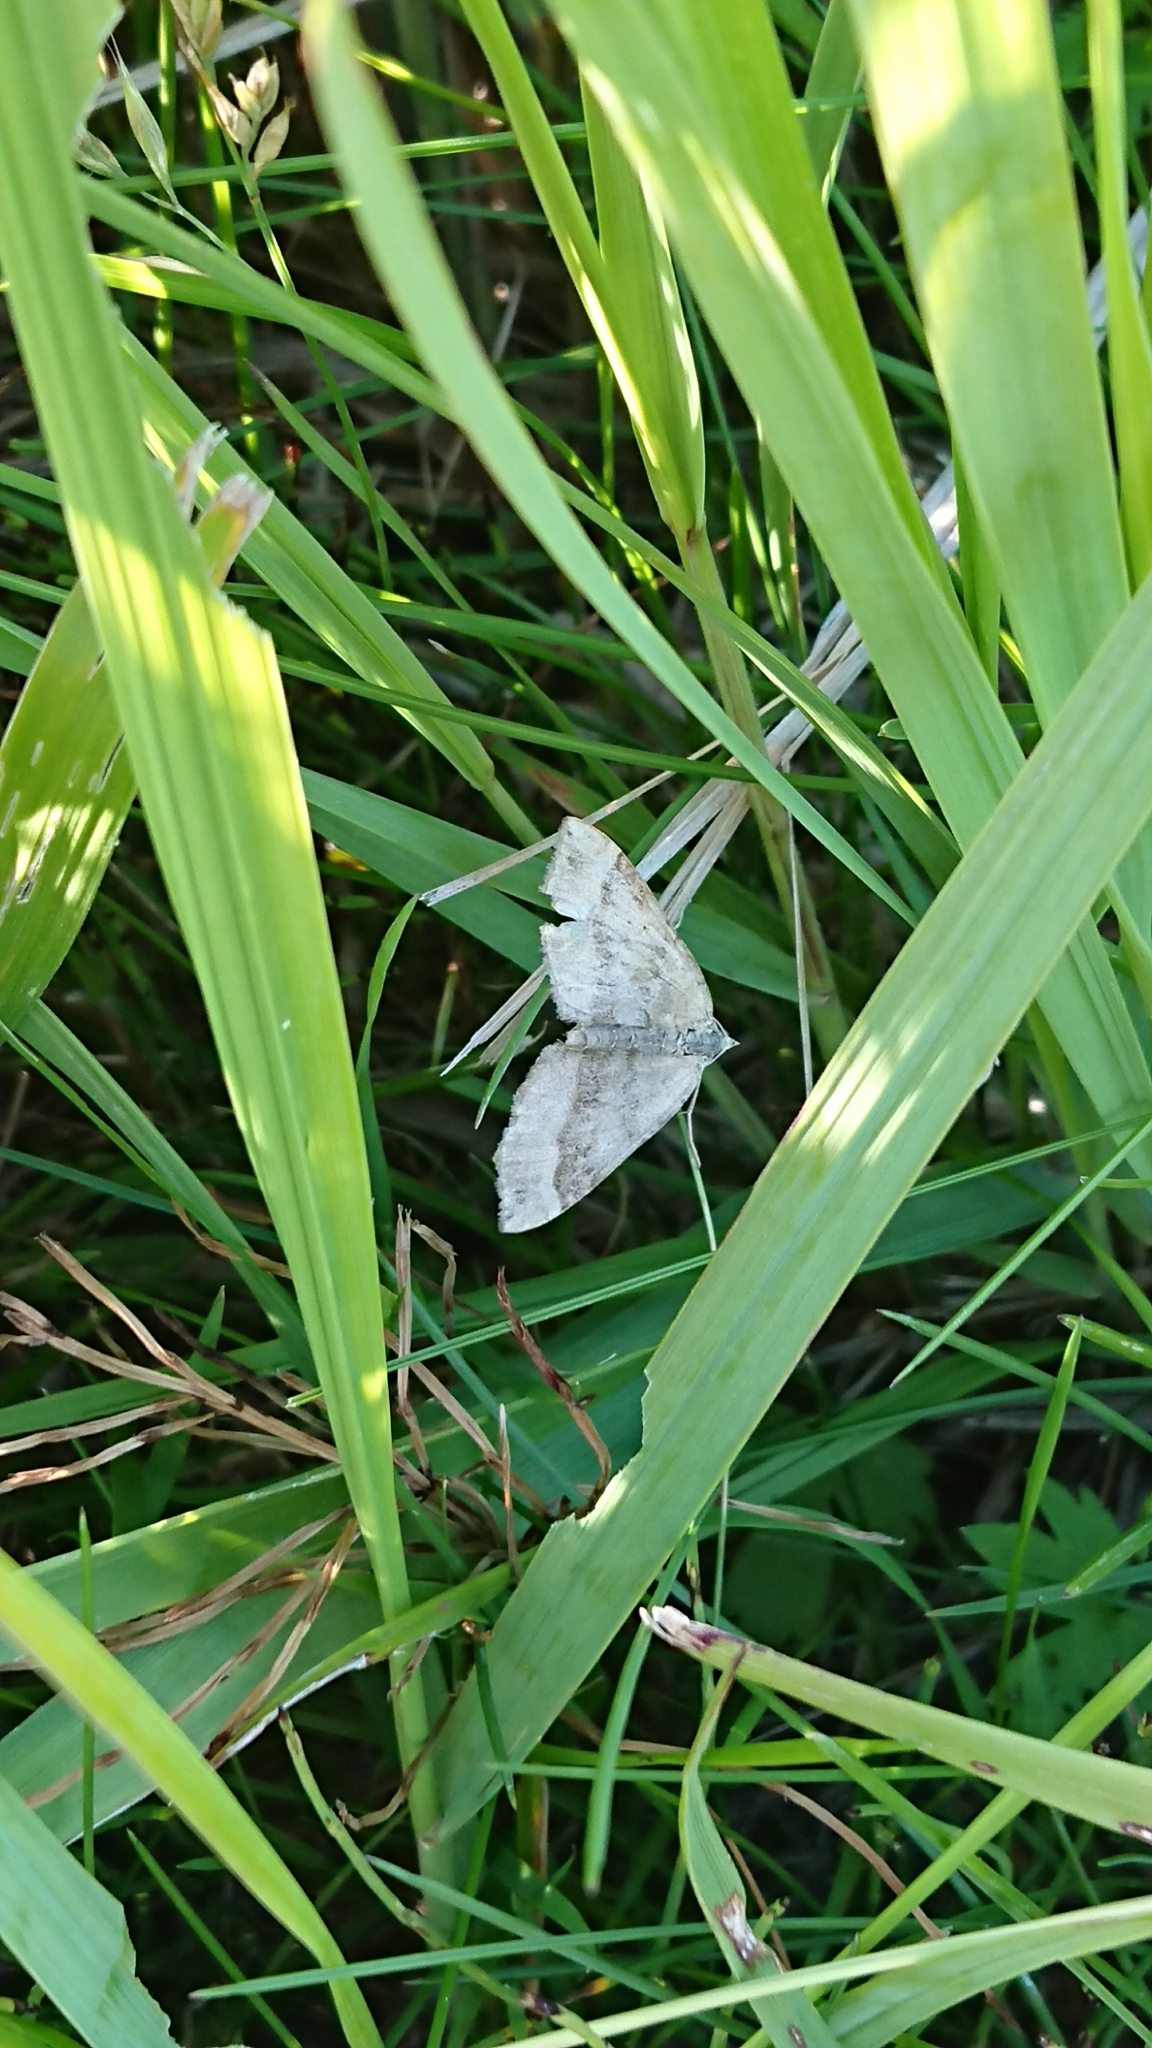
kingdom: Animalia
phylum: Arthropoda
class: Insecta
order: Lepidoptera
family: Geometridae
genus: Scotopteryx
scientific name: Scotopteryx chenopodiata
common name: Shaded broad-bar
